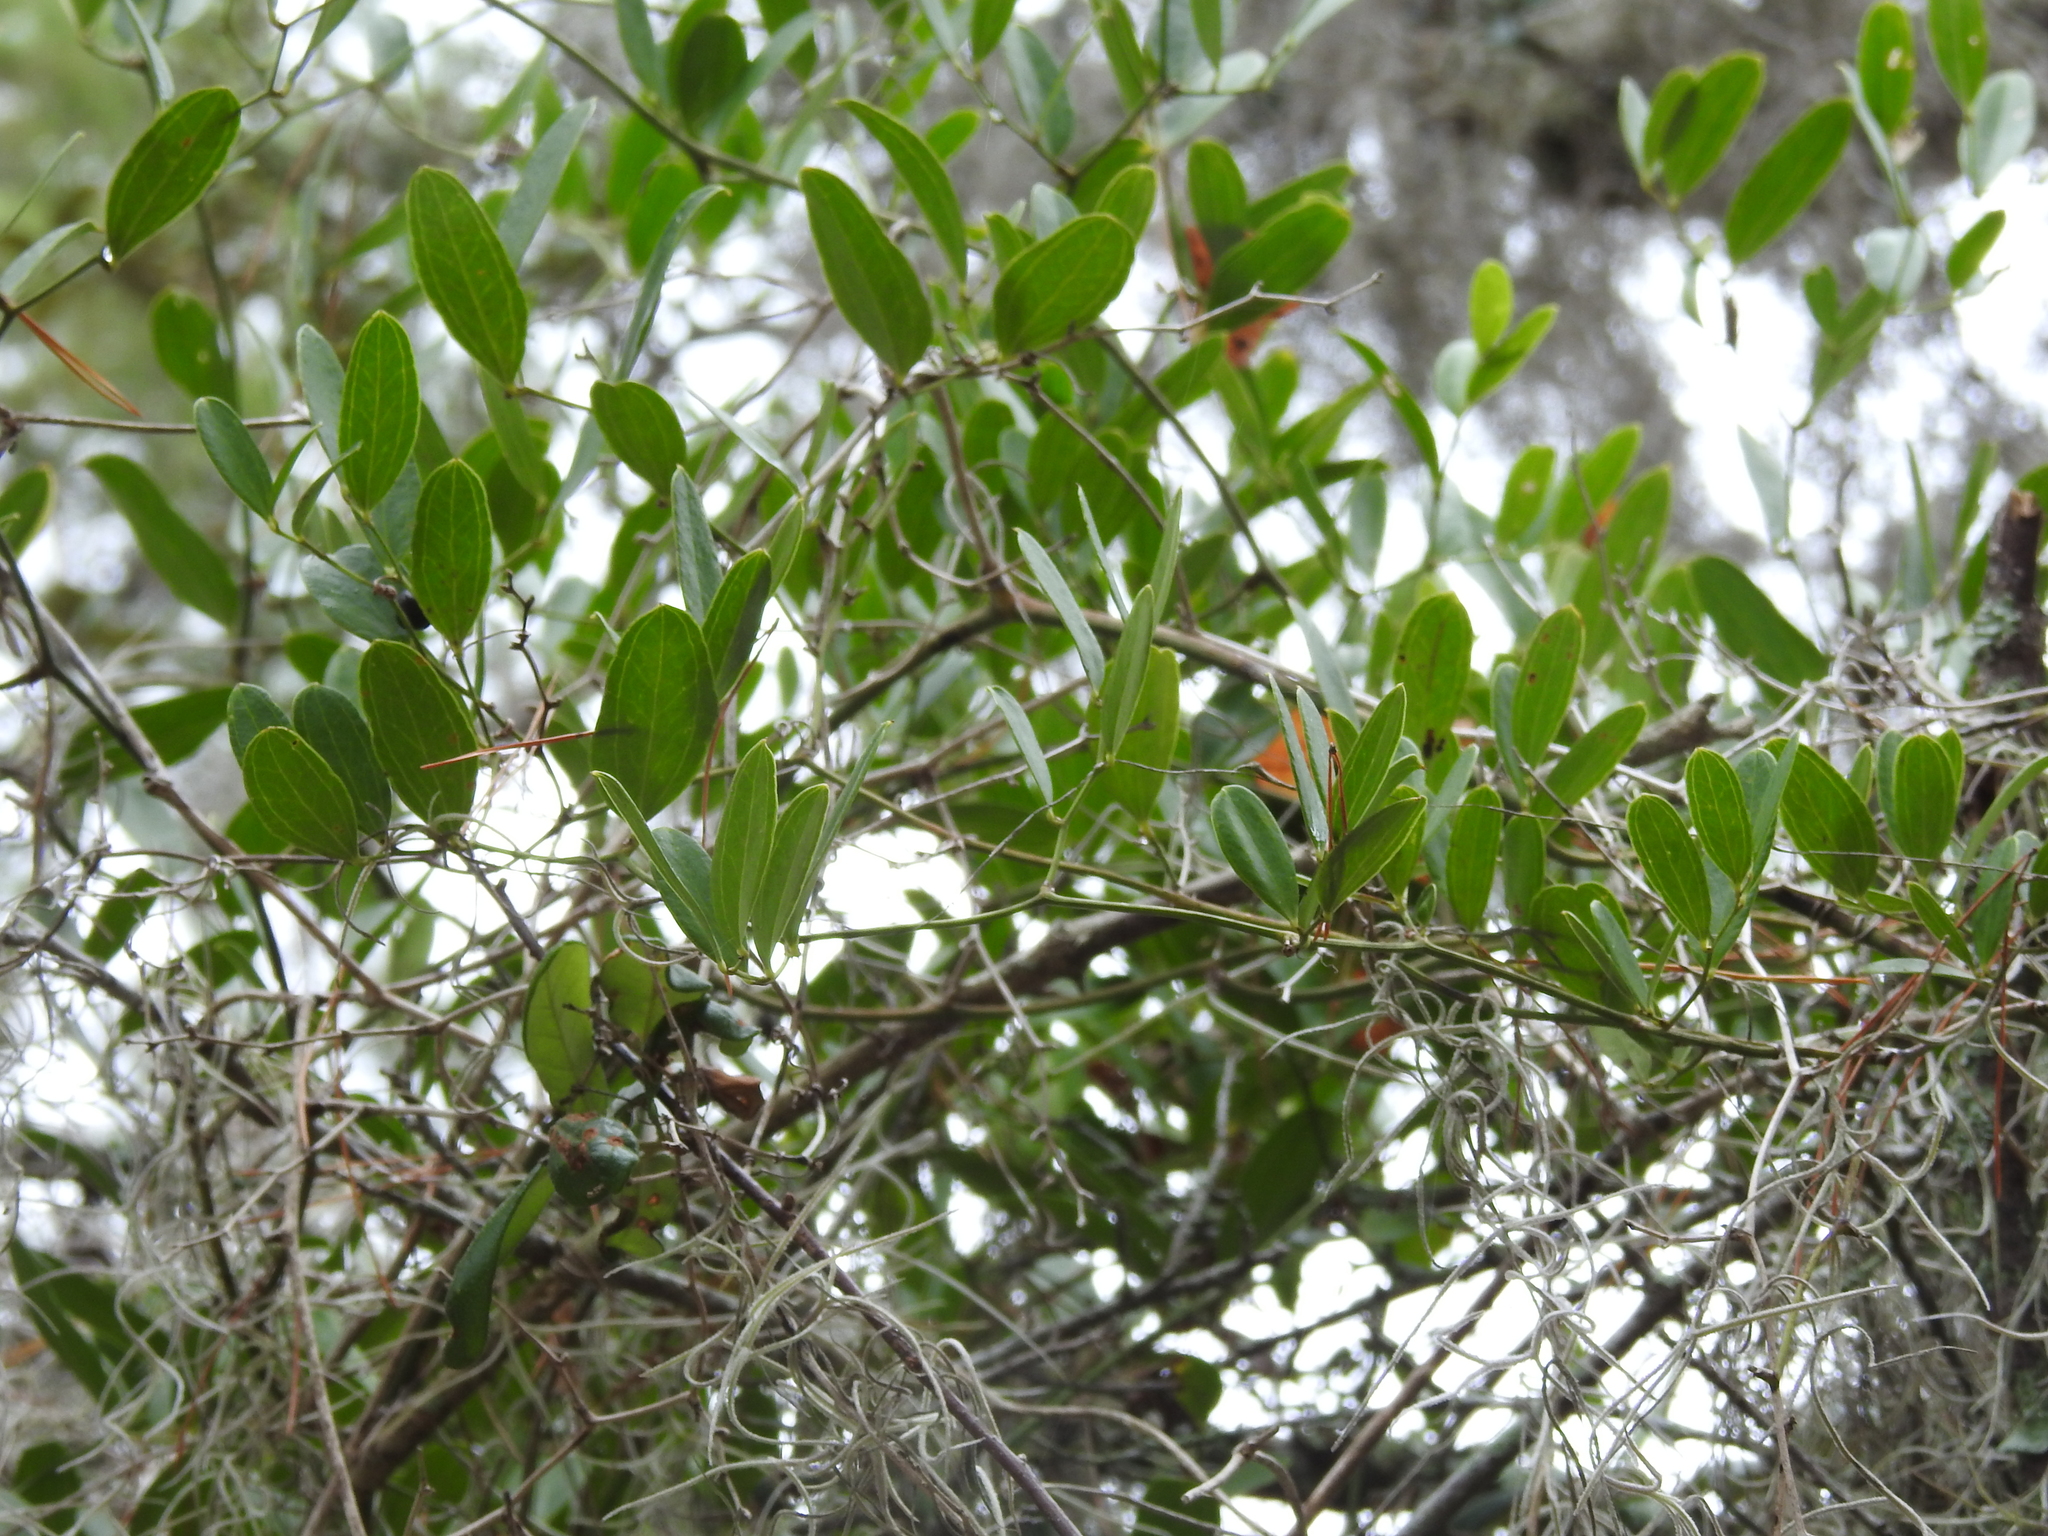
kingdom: Plantae
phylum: Tracheophyta
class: Liliopsida
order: Liliales
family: Smilacaceae
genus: Smilax
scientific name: Smilax auriculata
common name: Wild bamboo
